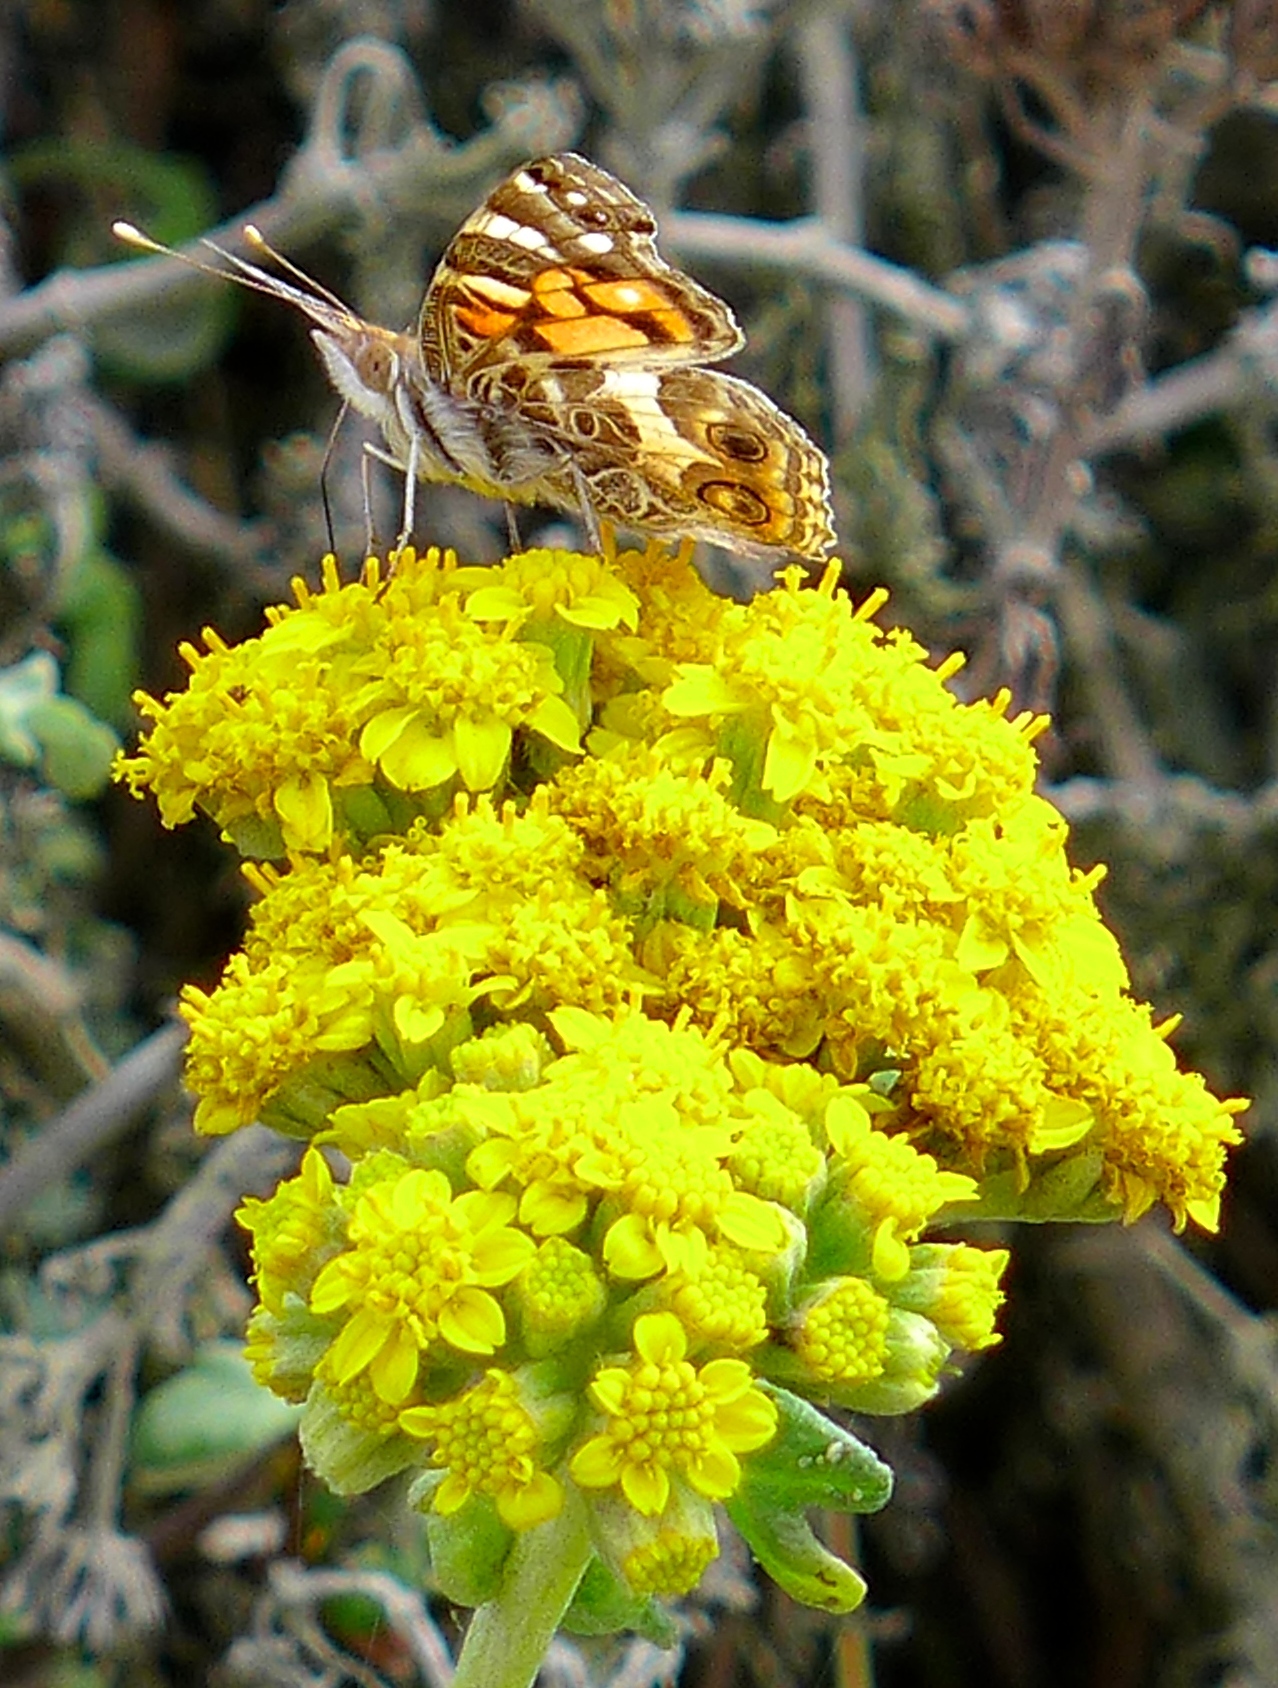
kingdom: Animalia
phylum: Arthropoda
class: Insecta
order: Lepidoptera
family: Nymphalidae
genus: Vanessa
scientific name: Vanessa virginiensis
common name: American lady
